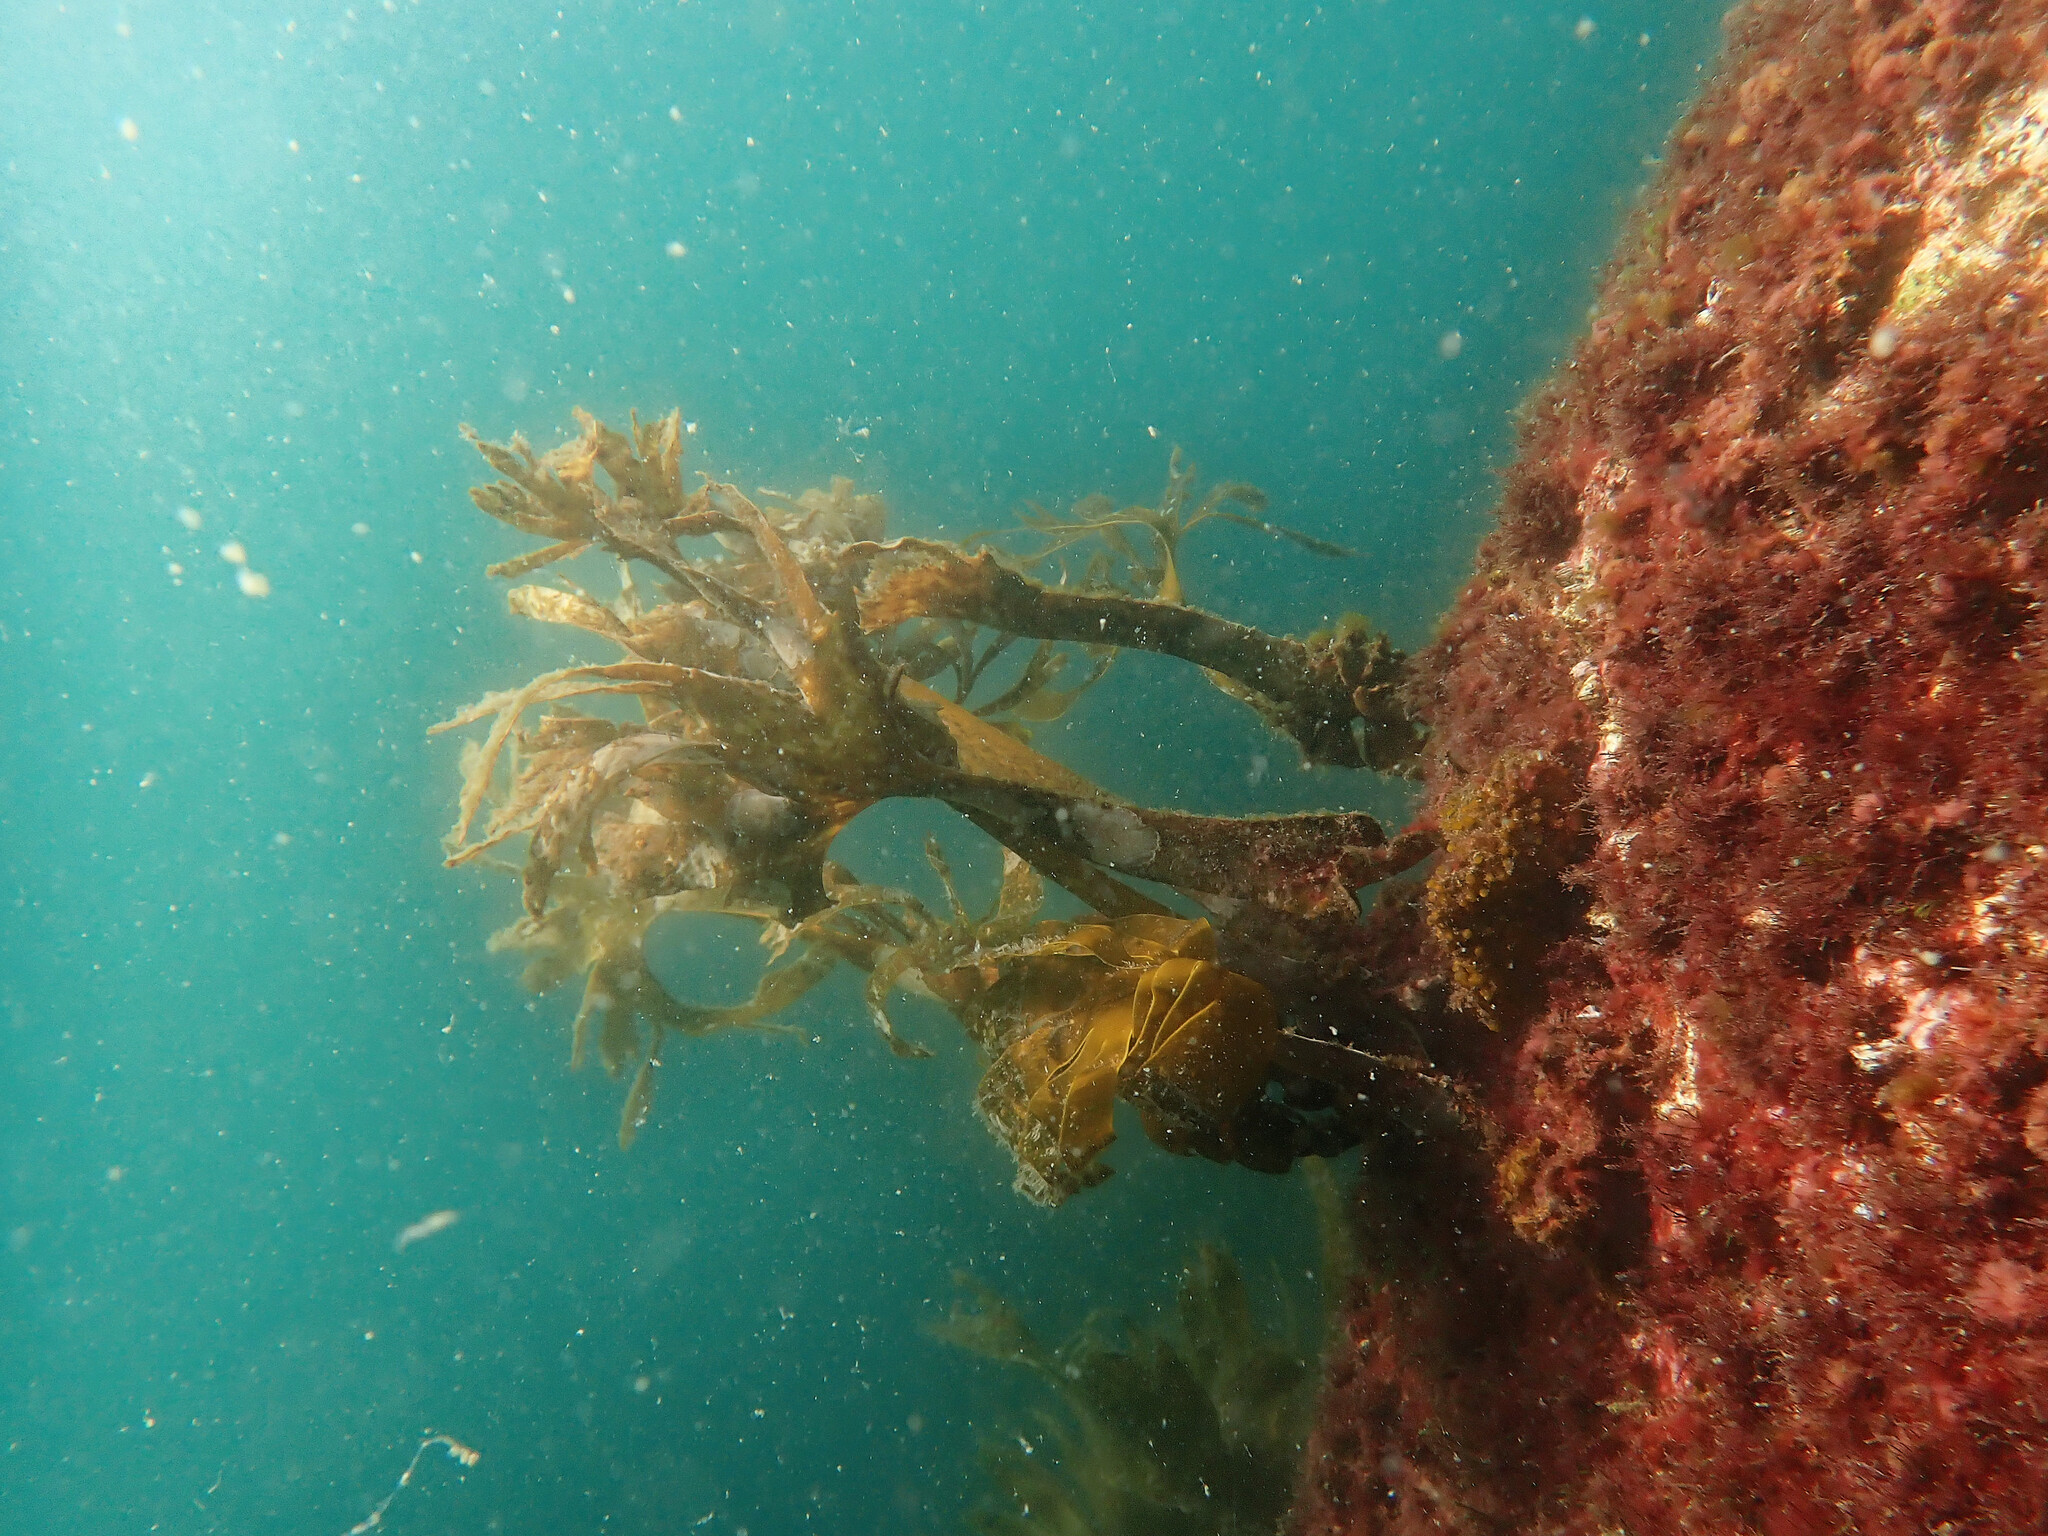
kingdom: Chromista
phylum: Ochrophyta
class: Phaeophyceae
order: Tilopteridales
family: Phyllariaceae
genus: Saccorhiza
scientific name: Saccorhiza polyschides
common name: Furbelows
